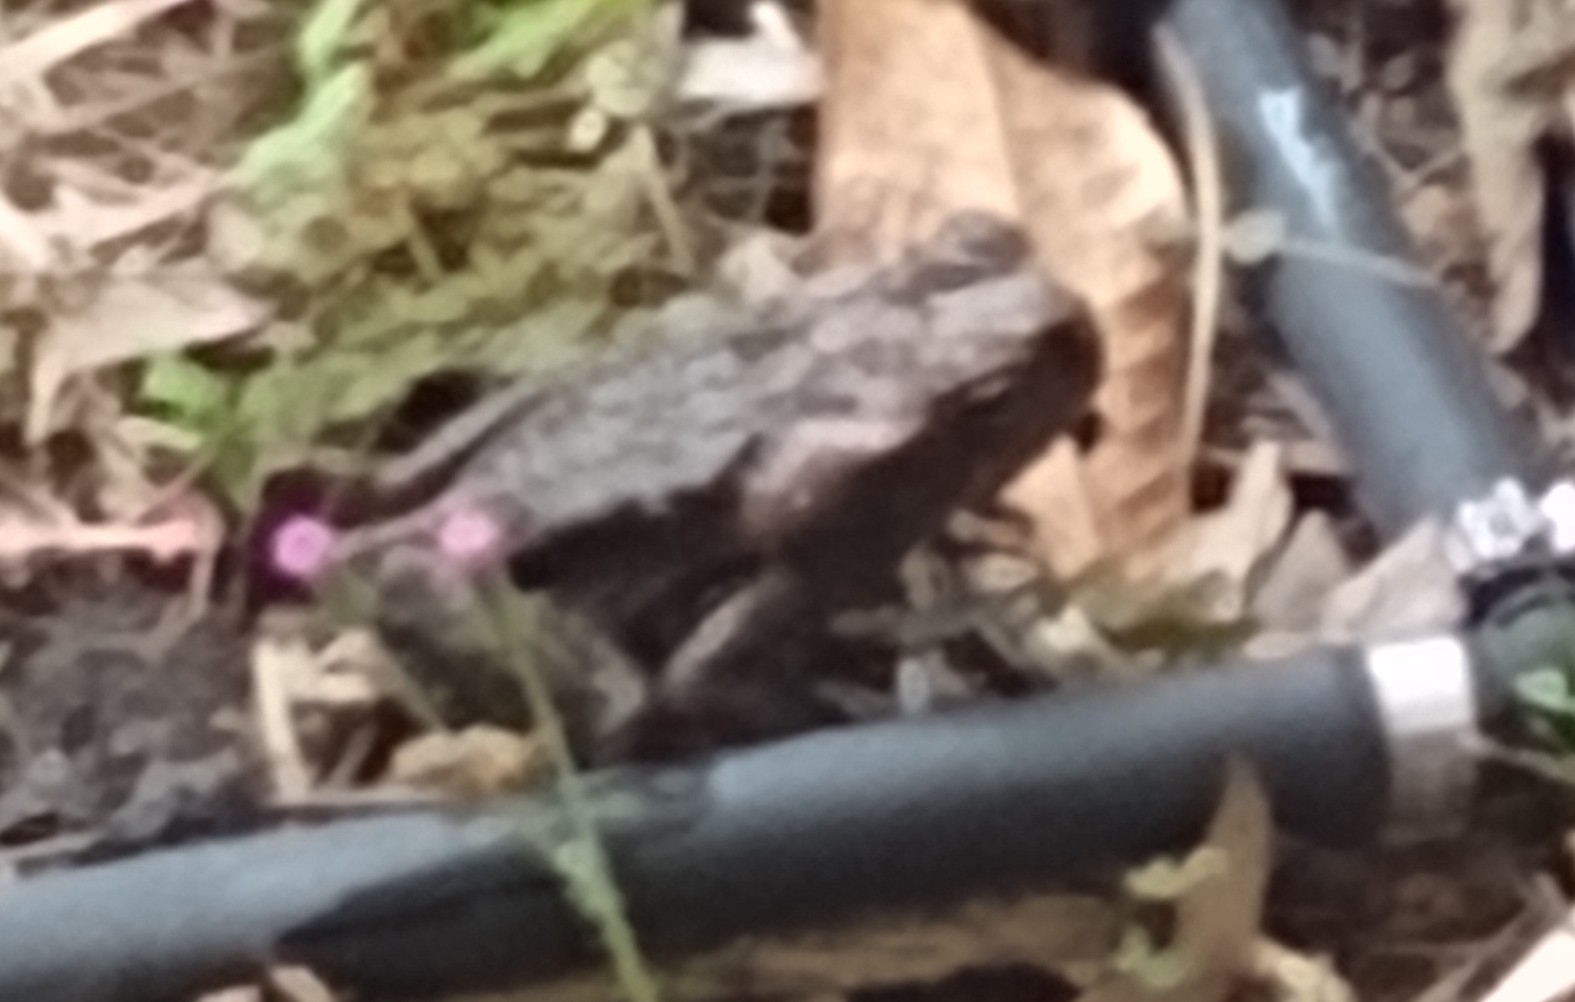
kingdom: Animalia
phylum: Chordata
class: Amphibia
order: Anura
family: Bufonidae
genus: Rhinella
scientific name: Rhinella marina
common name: Cane toad
